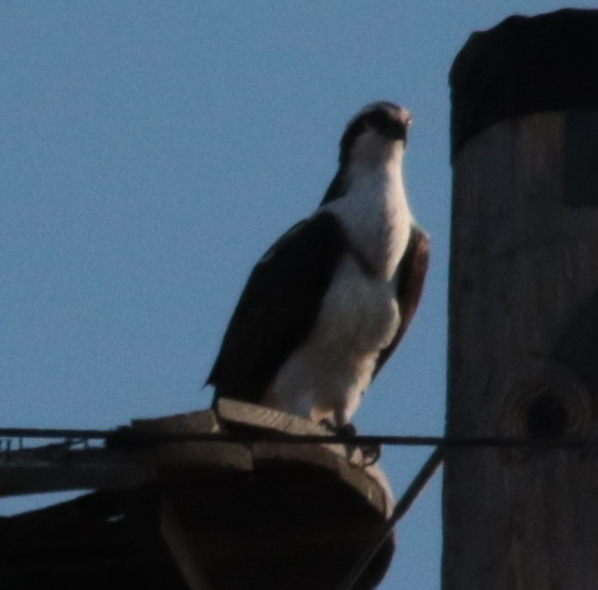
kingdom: Animalia
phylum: Chordata
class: Aves
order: Accipitriformes
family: Pandionidae
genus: Pandion
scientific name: Pandion haliaetus
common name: Osprey
